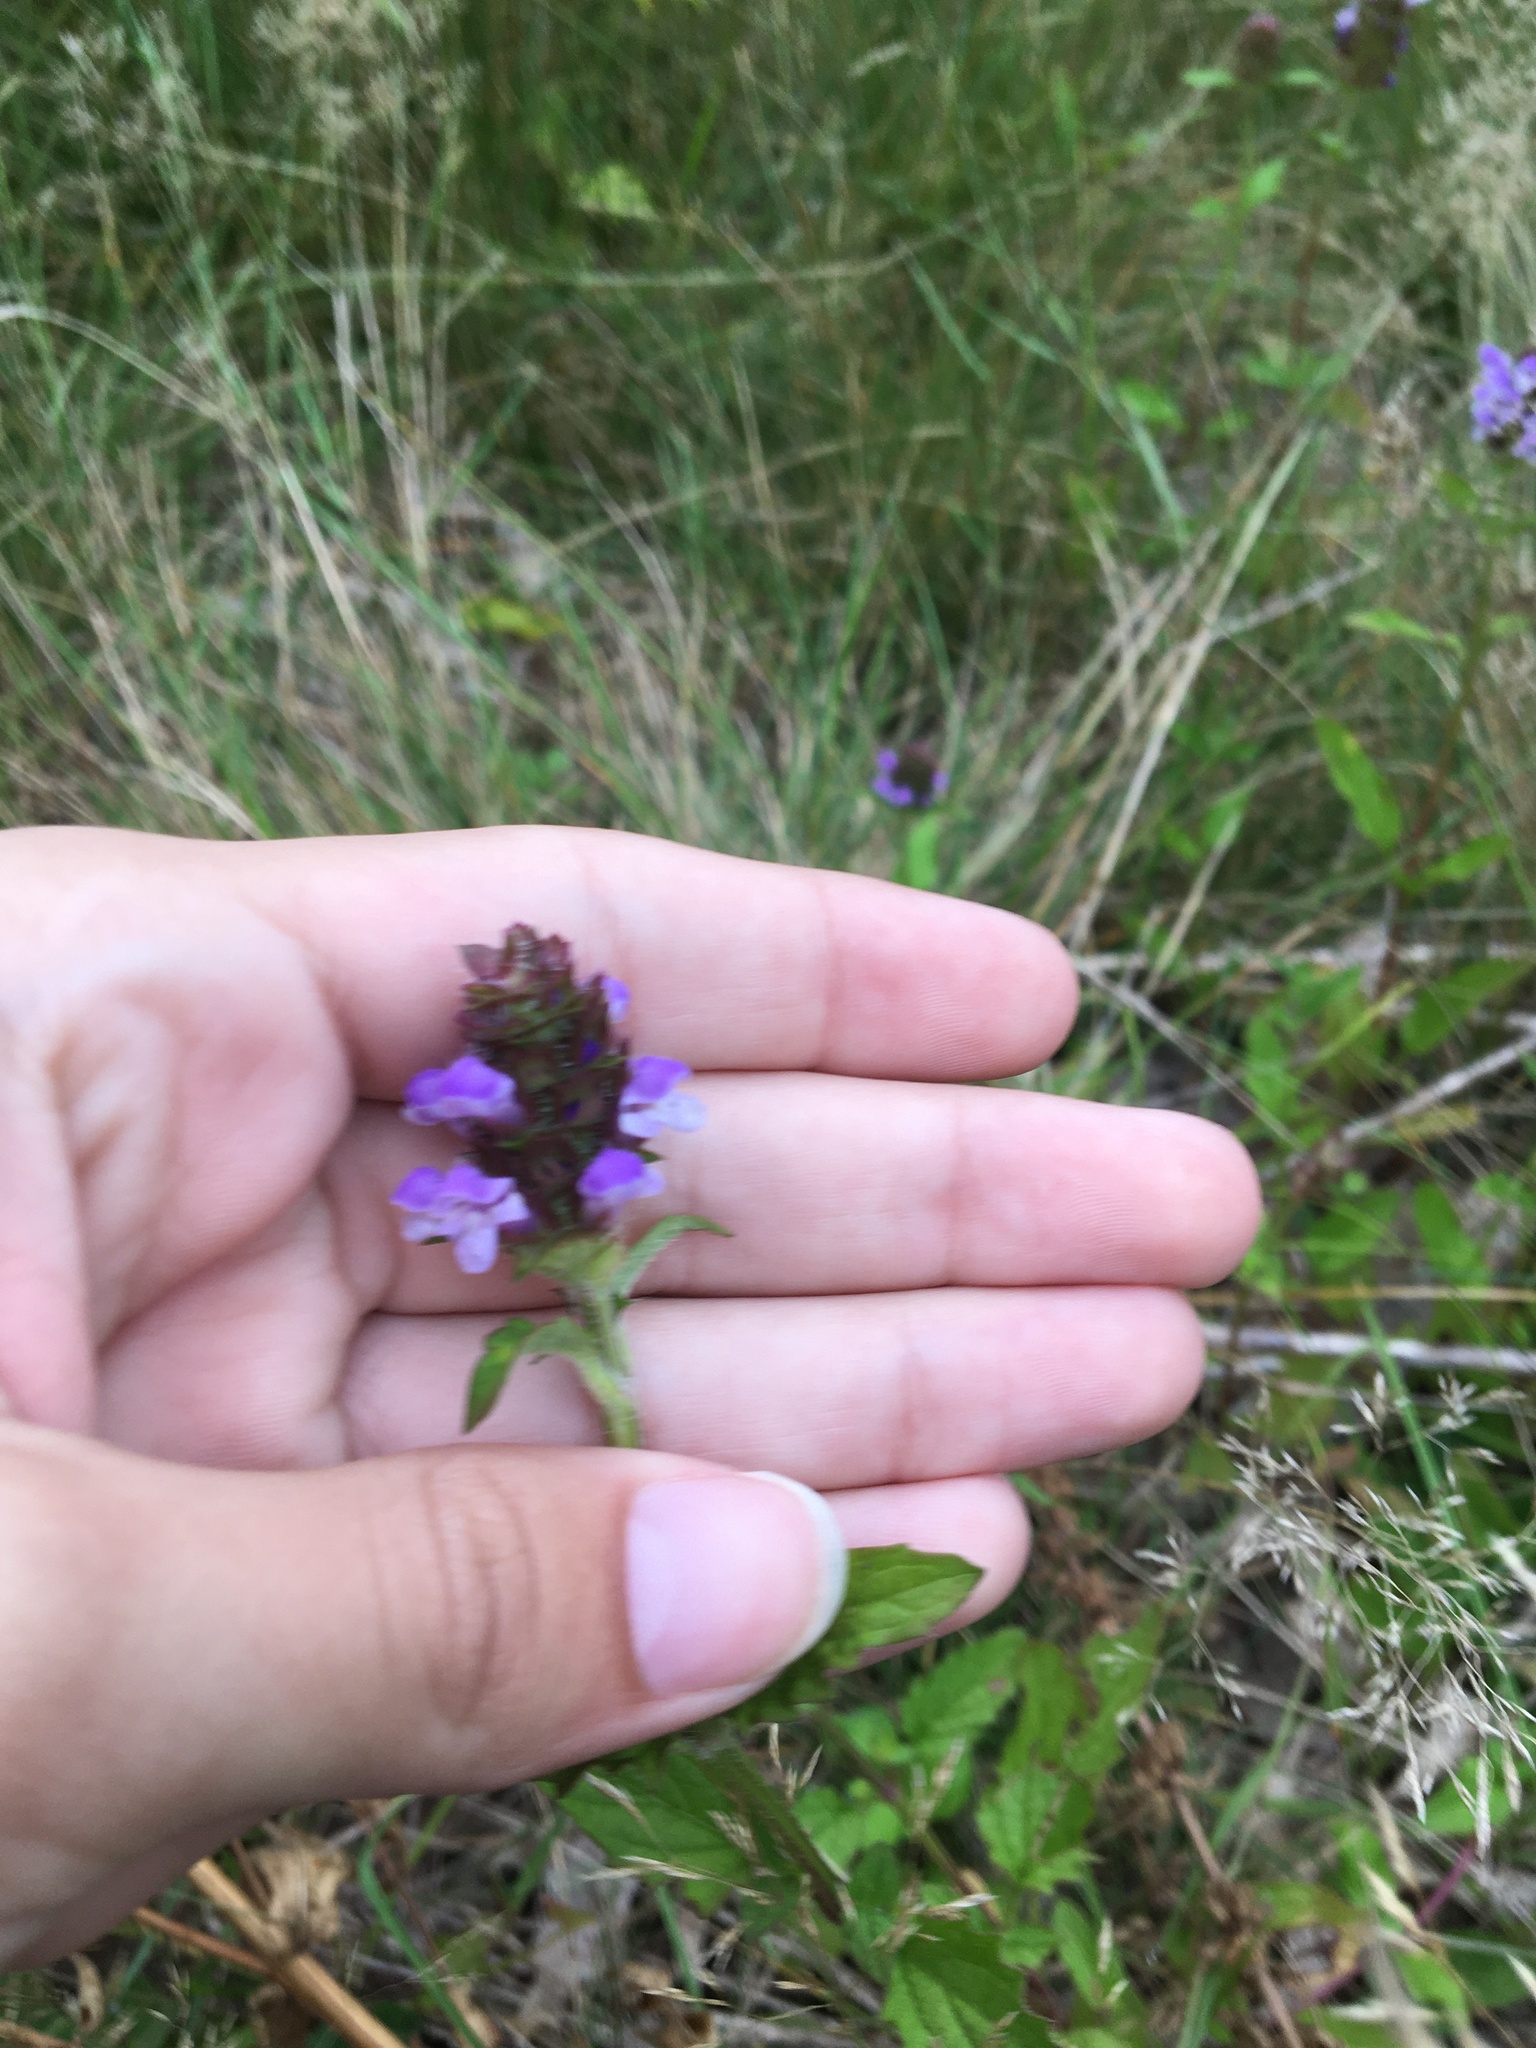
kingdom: Plantae
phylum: Tracheophyta
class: Magnoliopsida
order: Lamiales
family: Lamiaceae
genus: Prunella
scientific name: Prunella vulgaris
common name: Heal-all
